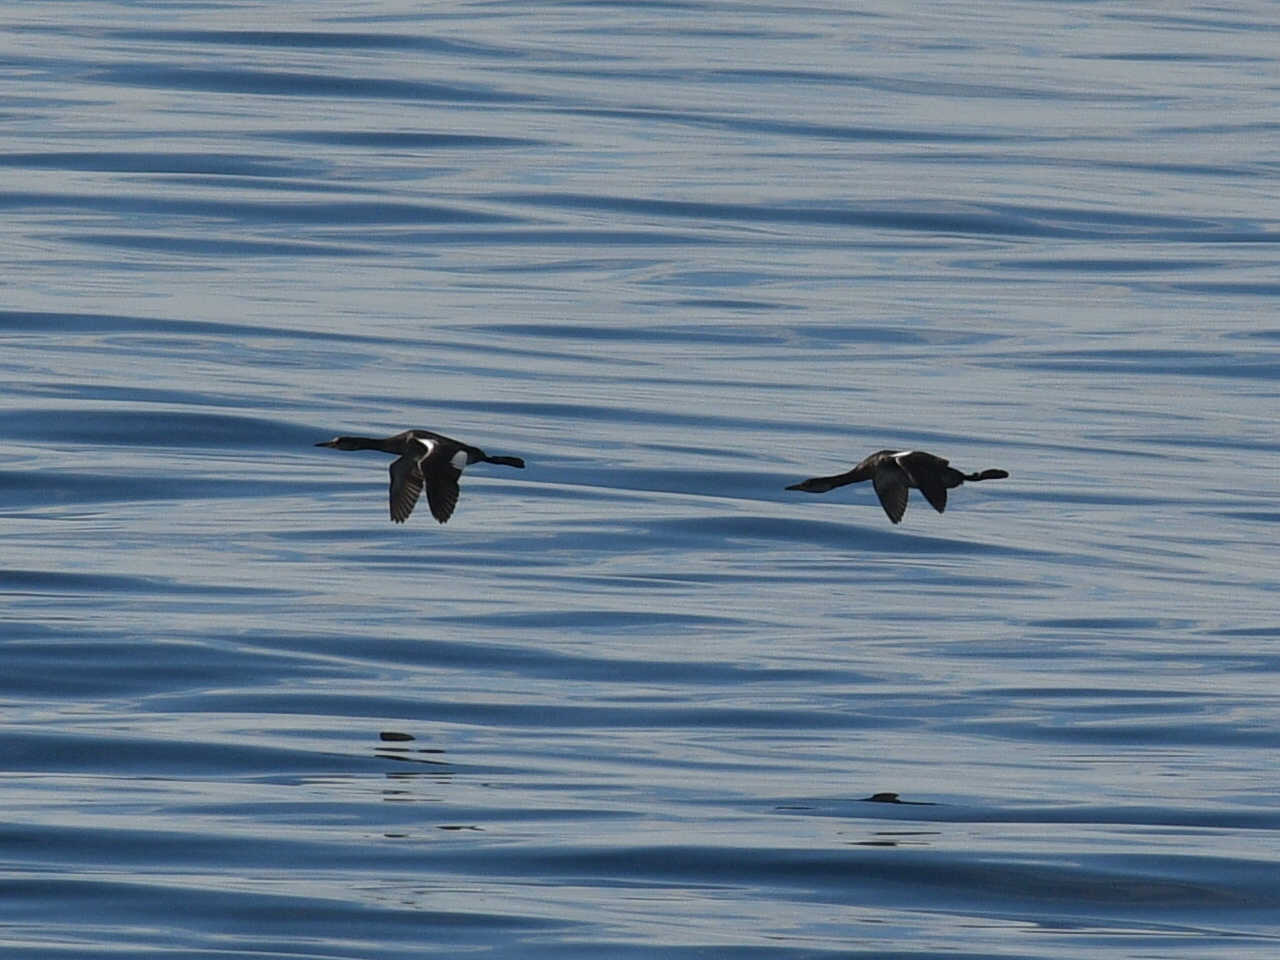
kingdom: Animalia
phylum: Chordata
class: Aves
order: Podicipediformes
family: Podicipedidae
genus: Podiceps
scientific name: Podiceps grisegena
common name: Red-necked grebe
